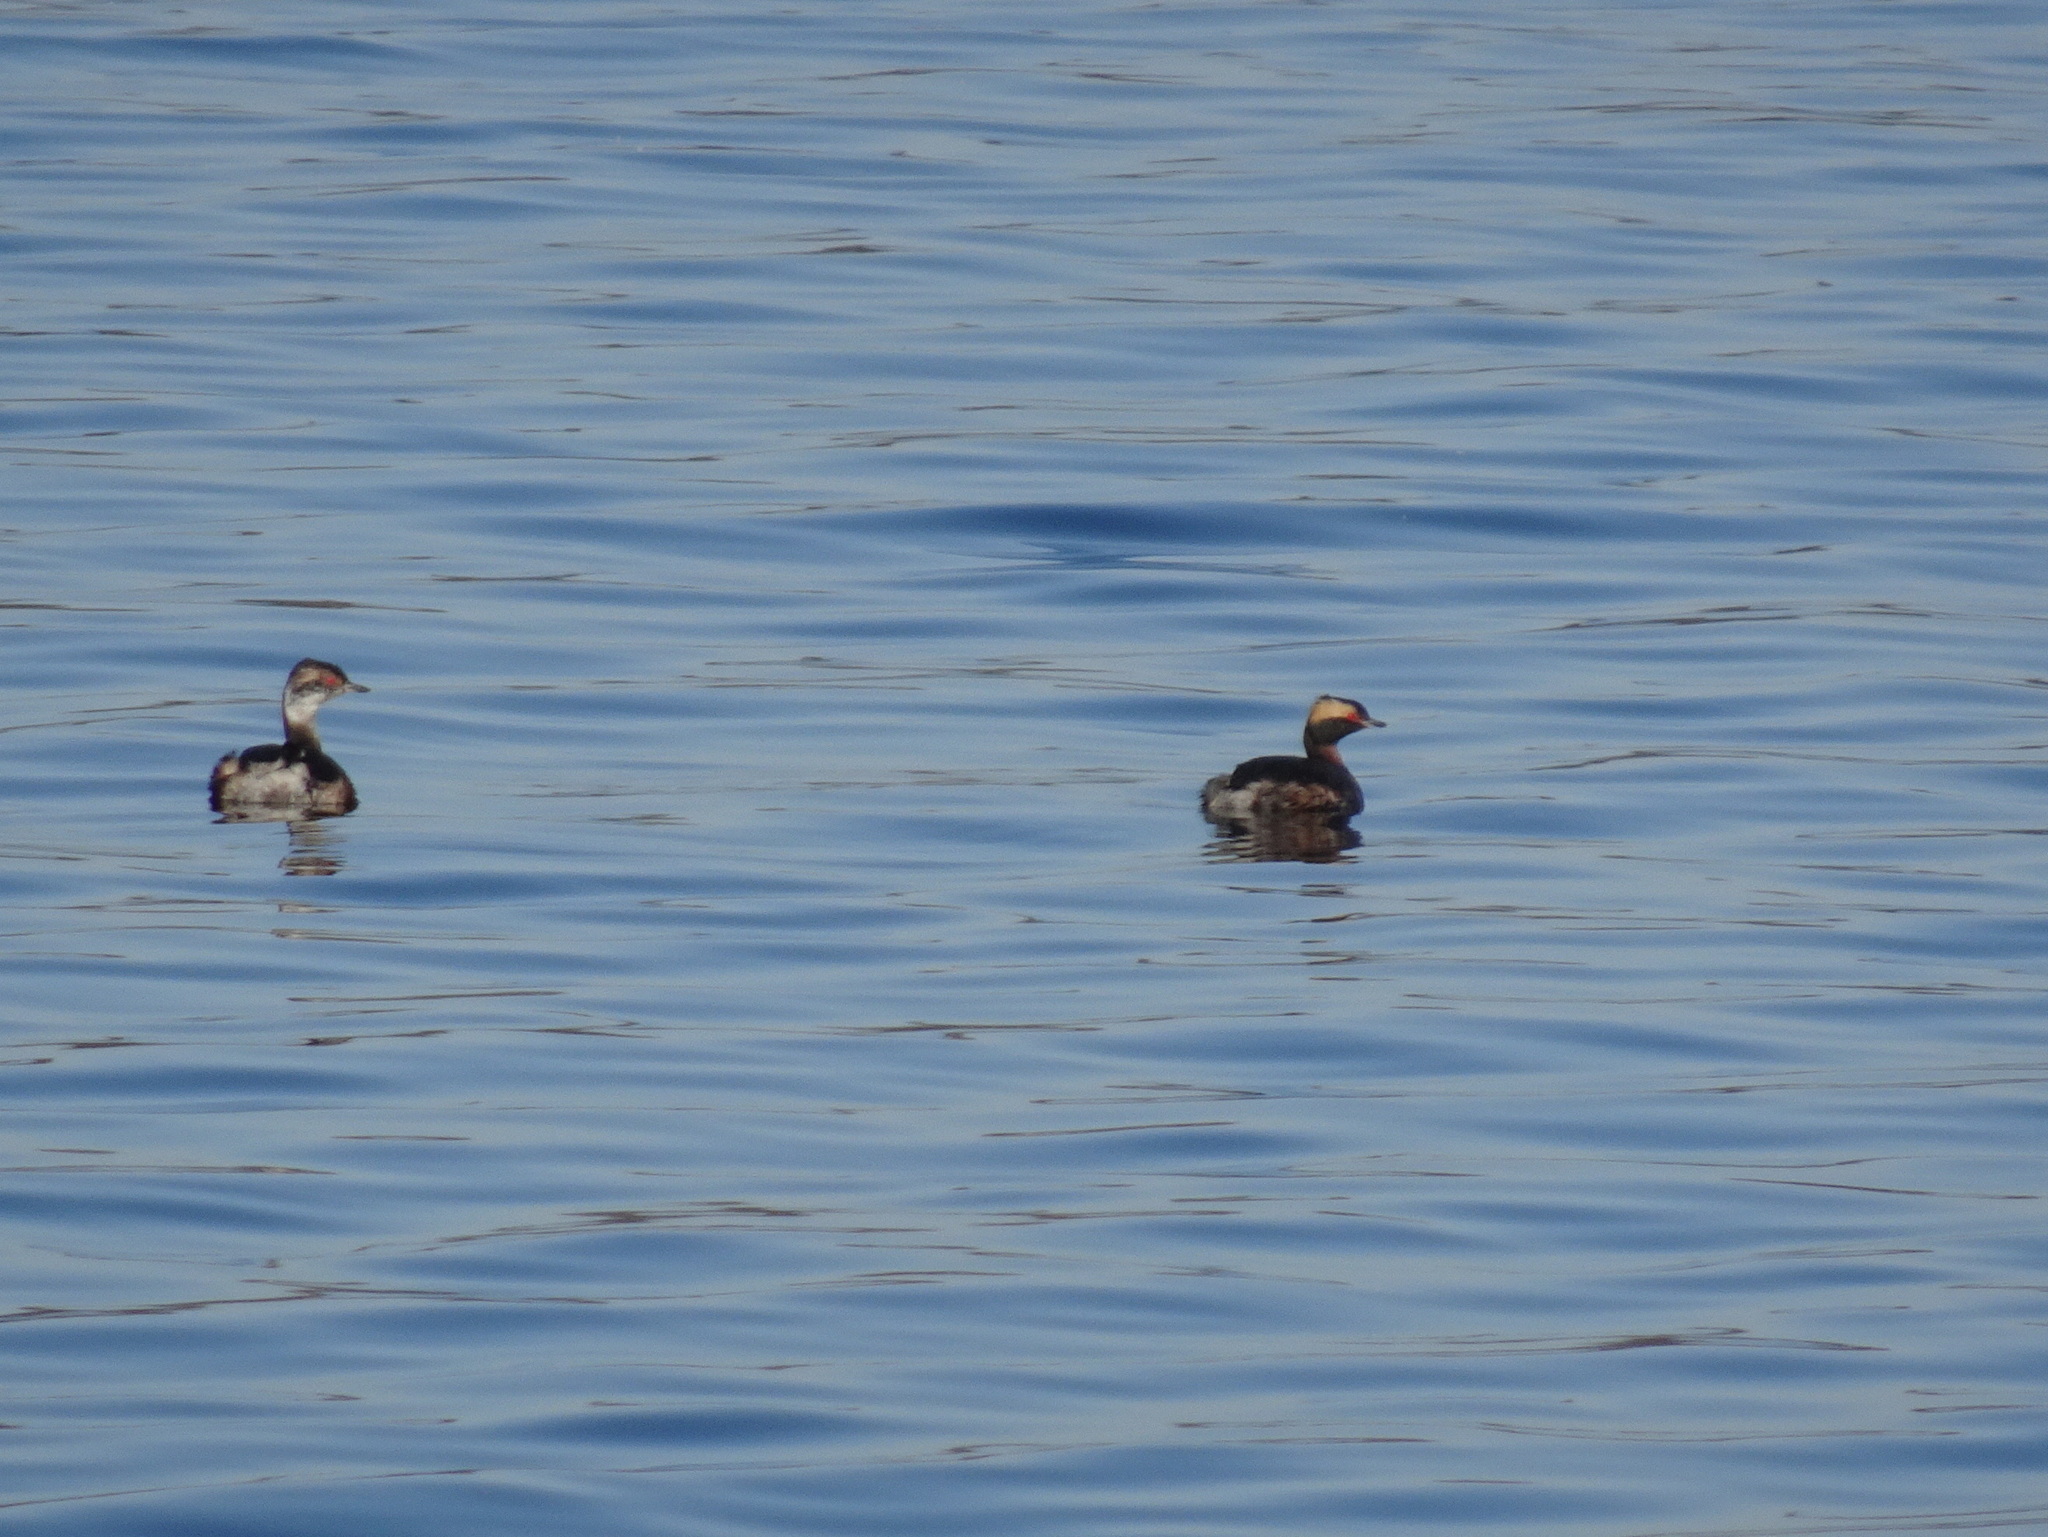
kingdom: Animalia
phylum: Chordata
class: Aves
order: Podicipediformes
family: Podicipedidae
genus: Podiceps
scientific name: Podiceps auritus
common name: Horned grebe
